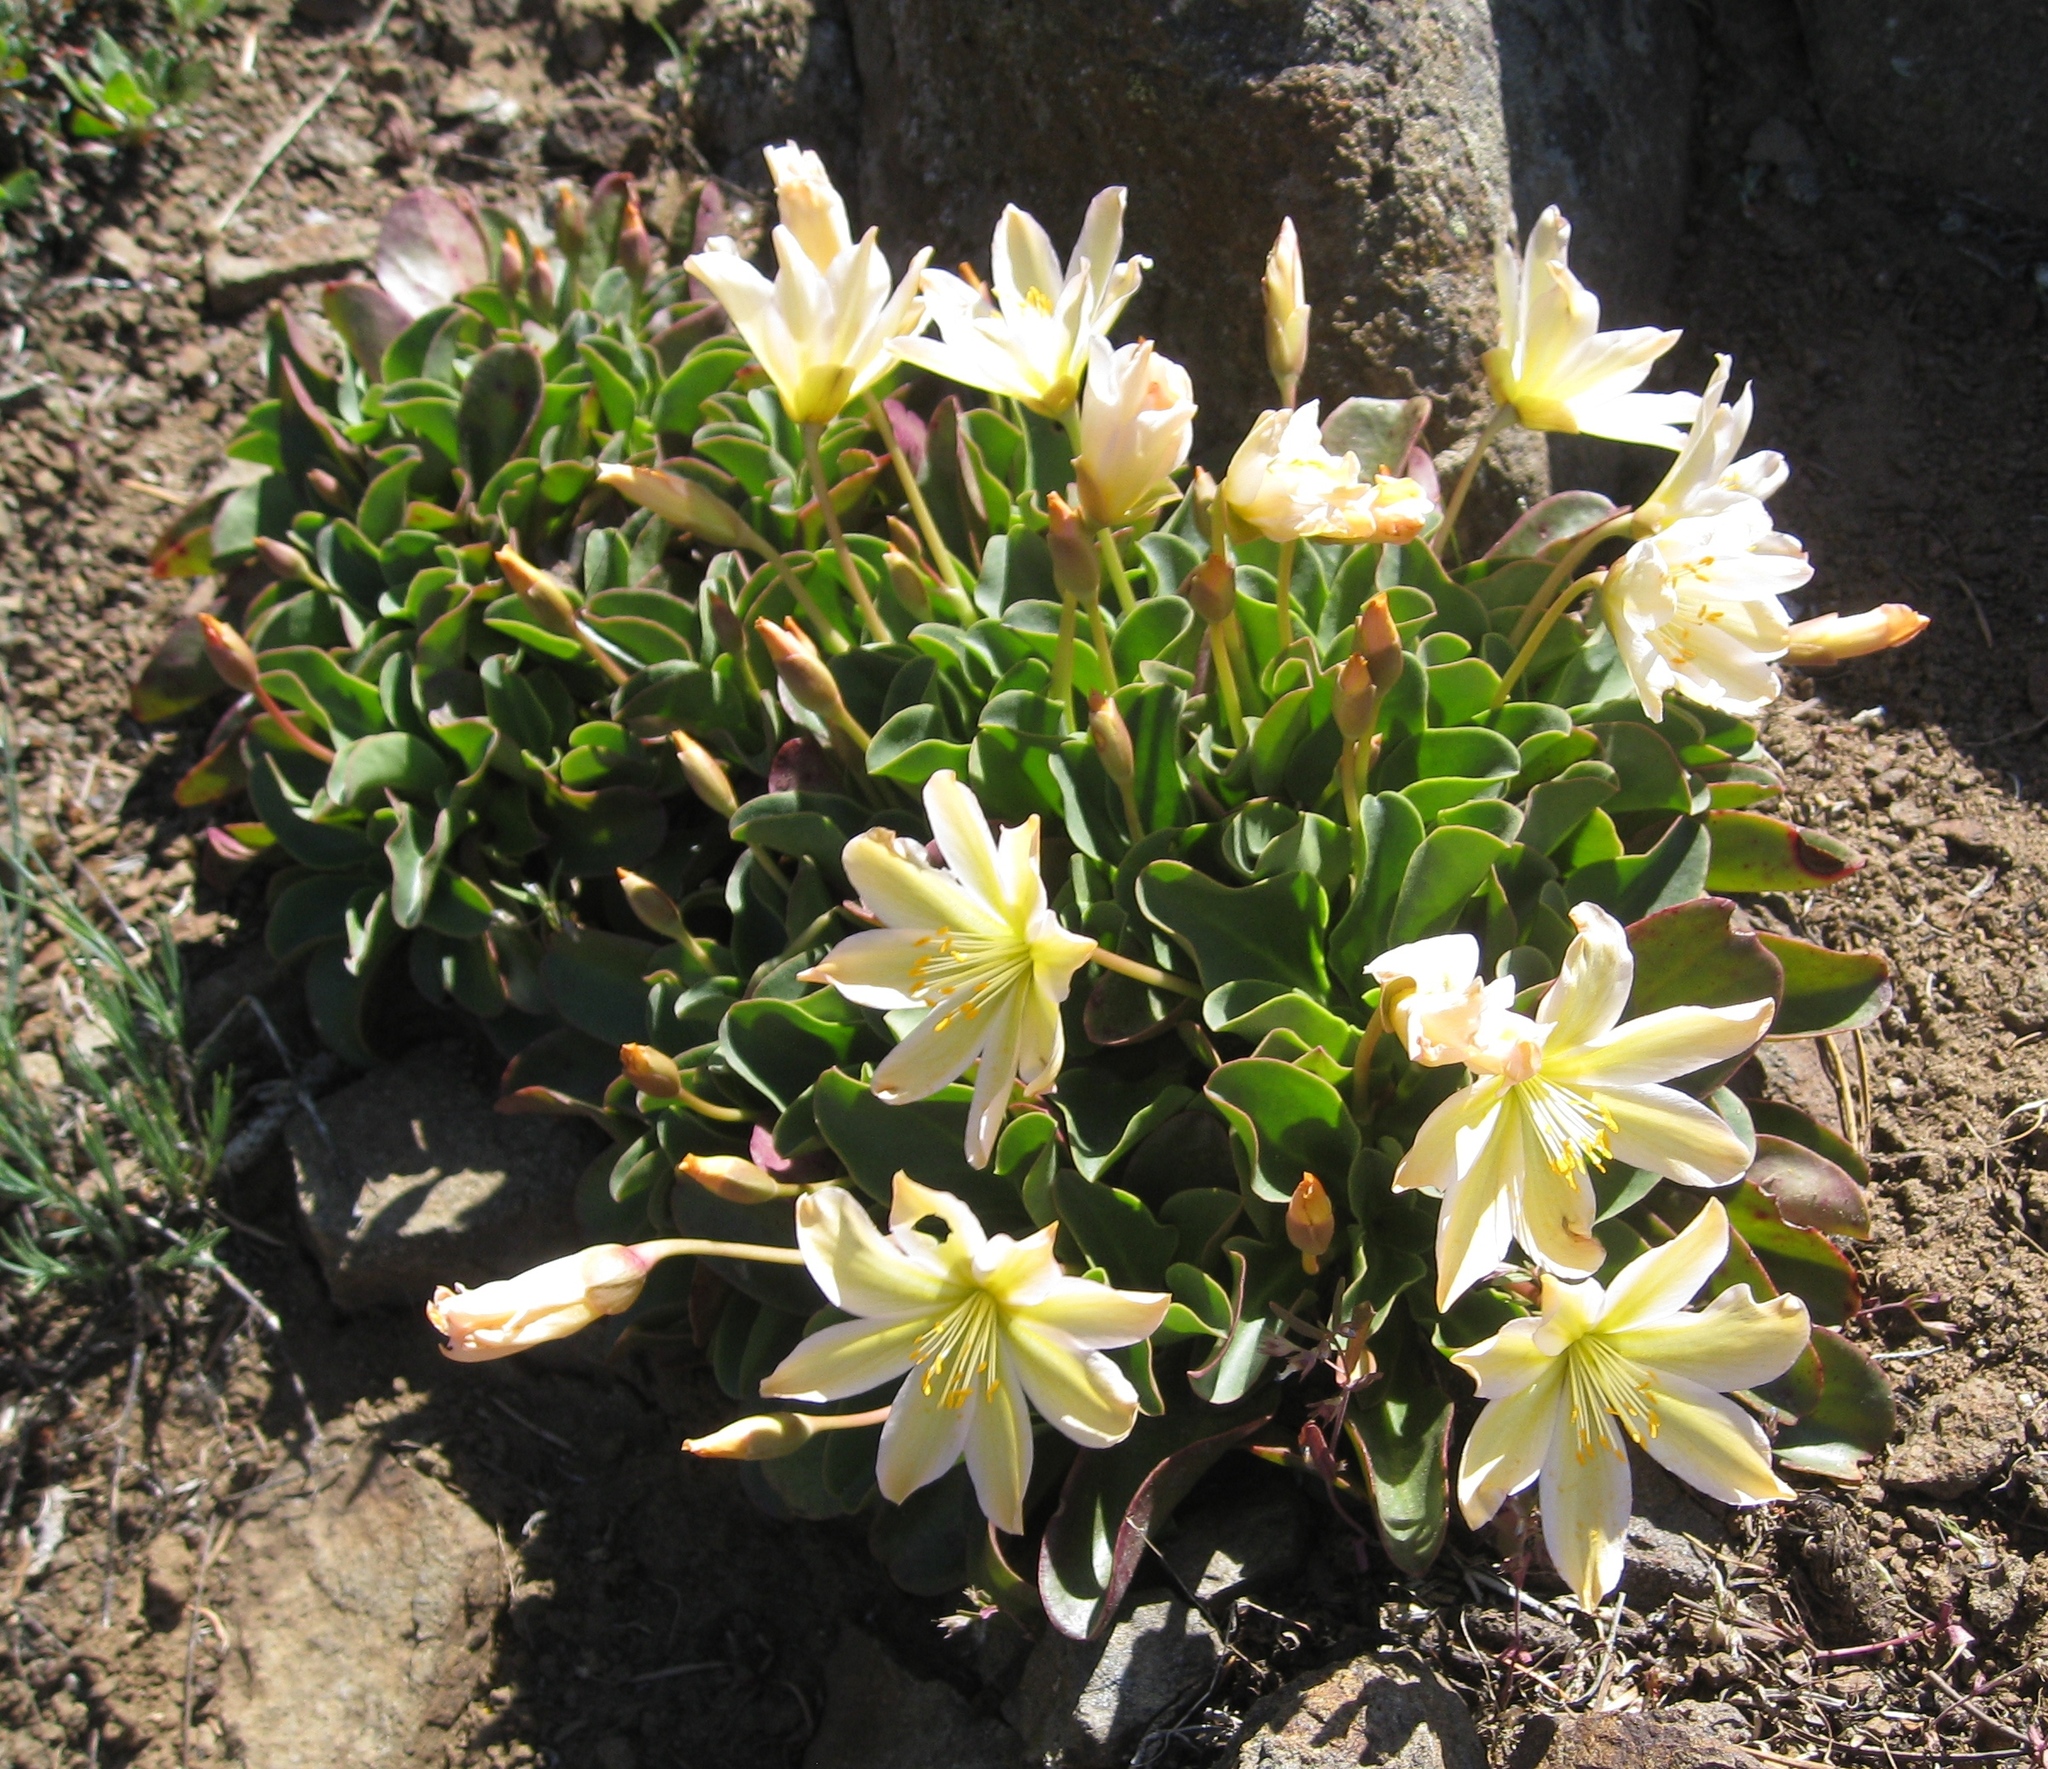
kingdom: Plantae
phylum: Tracheophyta
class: Magnoliopsida
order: Caryophyllales
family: Montiaceae
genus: Lewisiopsis
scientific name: Lewisiopsis tweedyi
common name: Tweedy's pussypaws
